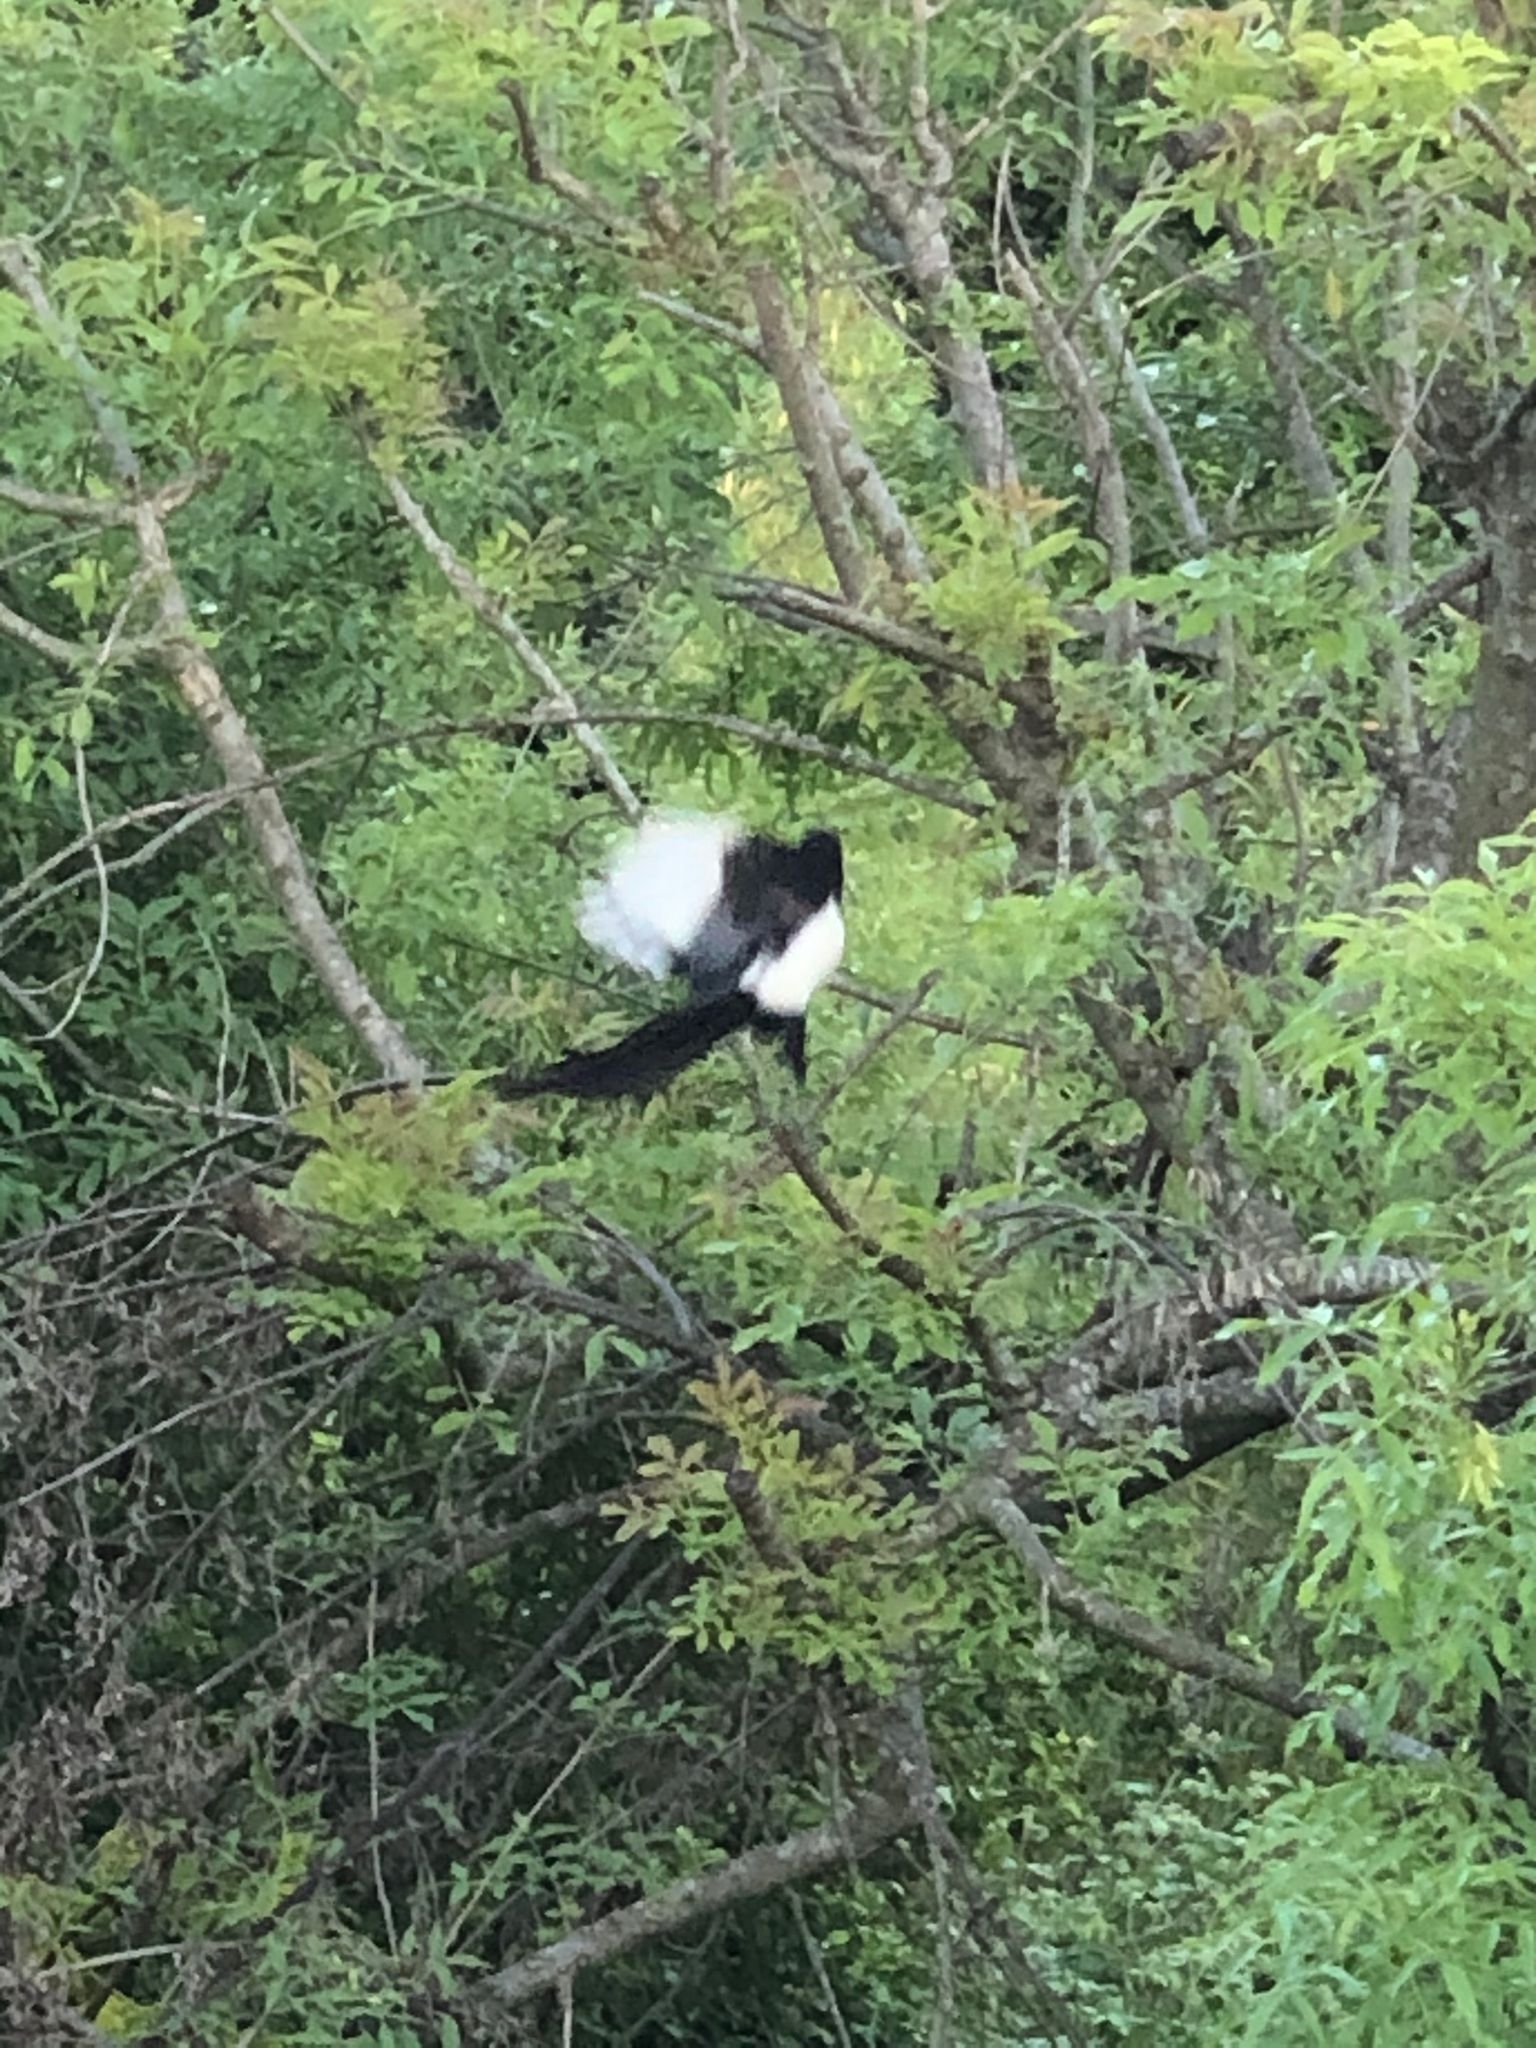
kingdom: Animalia
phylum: Chordata
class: Aves
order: Passeriformes
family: Corvidae
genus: Pica
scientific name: Pica pica
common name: Eurasian magpie
